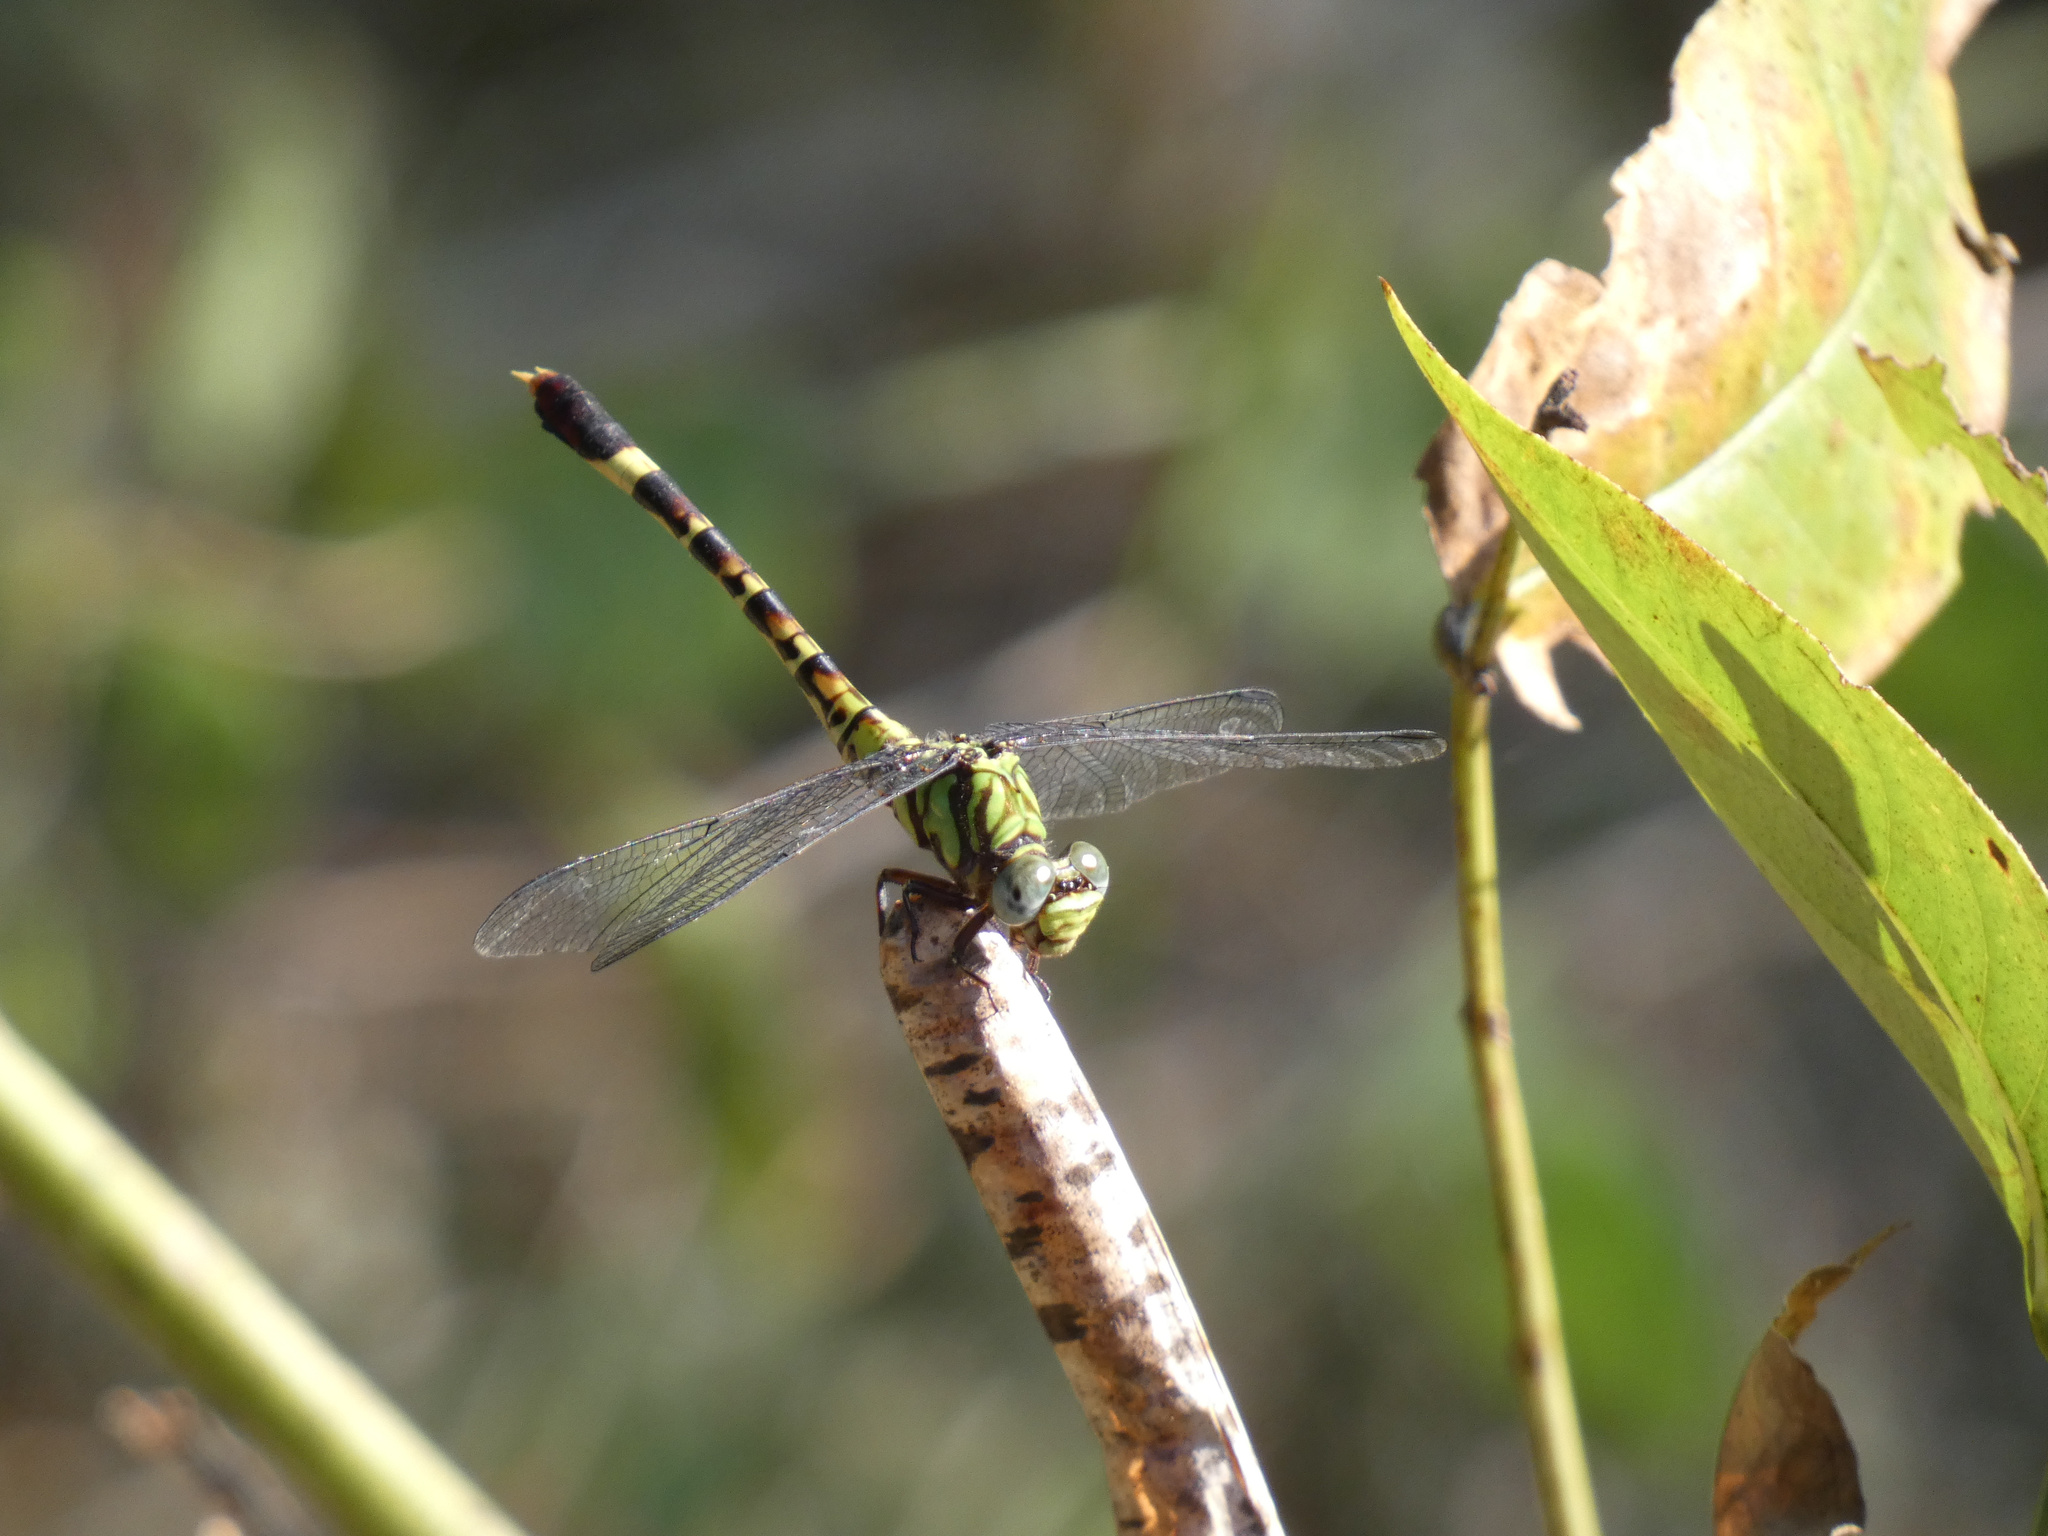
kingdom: Animalia
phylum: Arthropoda
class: Insecta
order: Odonata
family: Gomphidae
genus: Paragomphus
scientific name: Paragomphus elpidius
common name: Corkscrew hooktail
